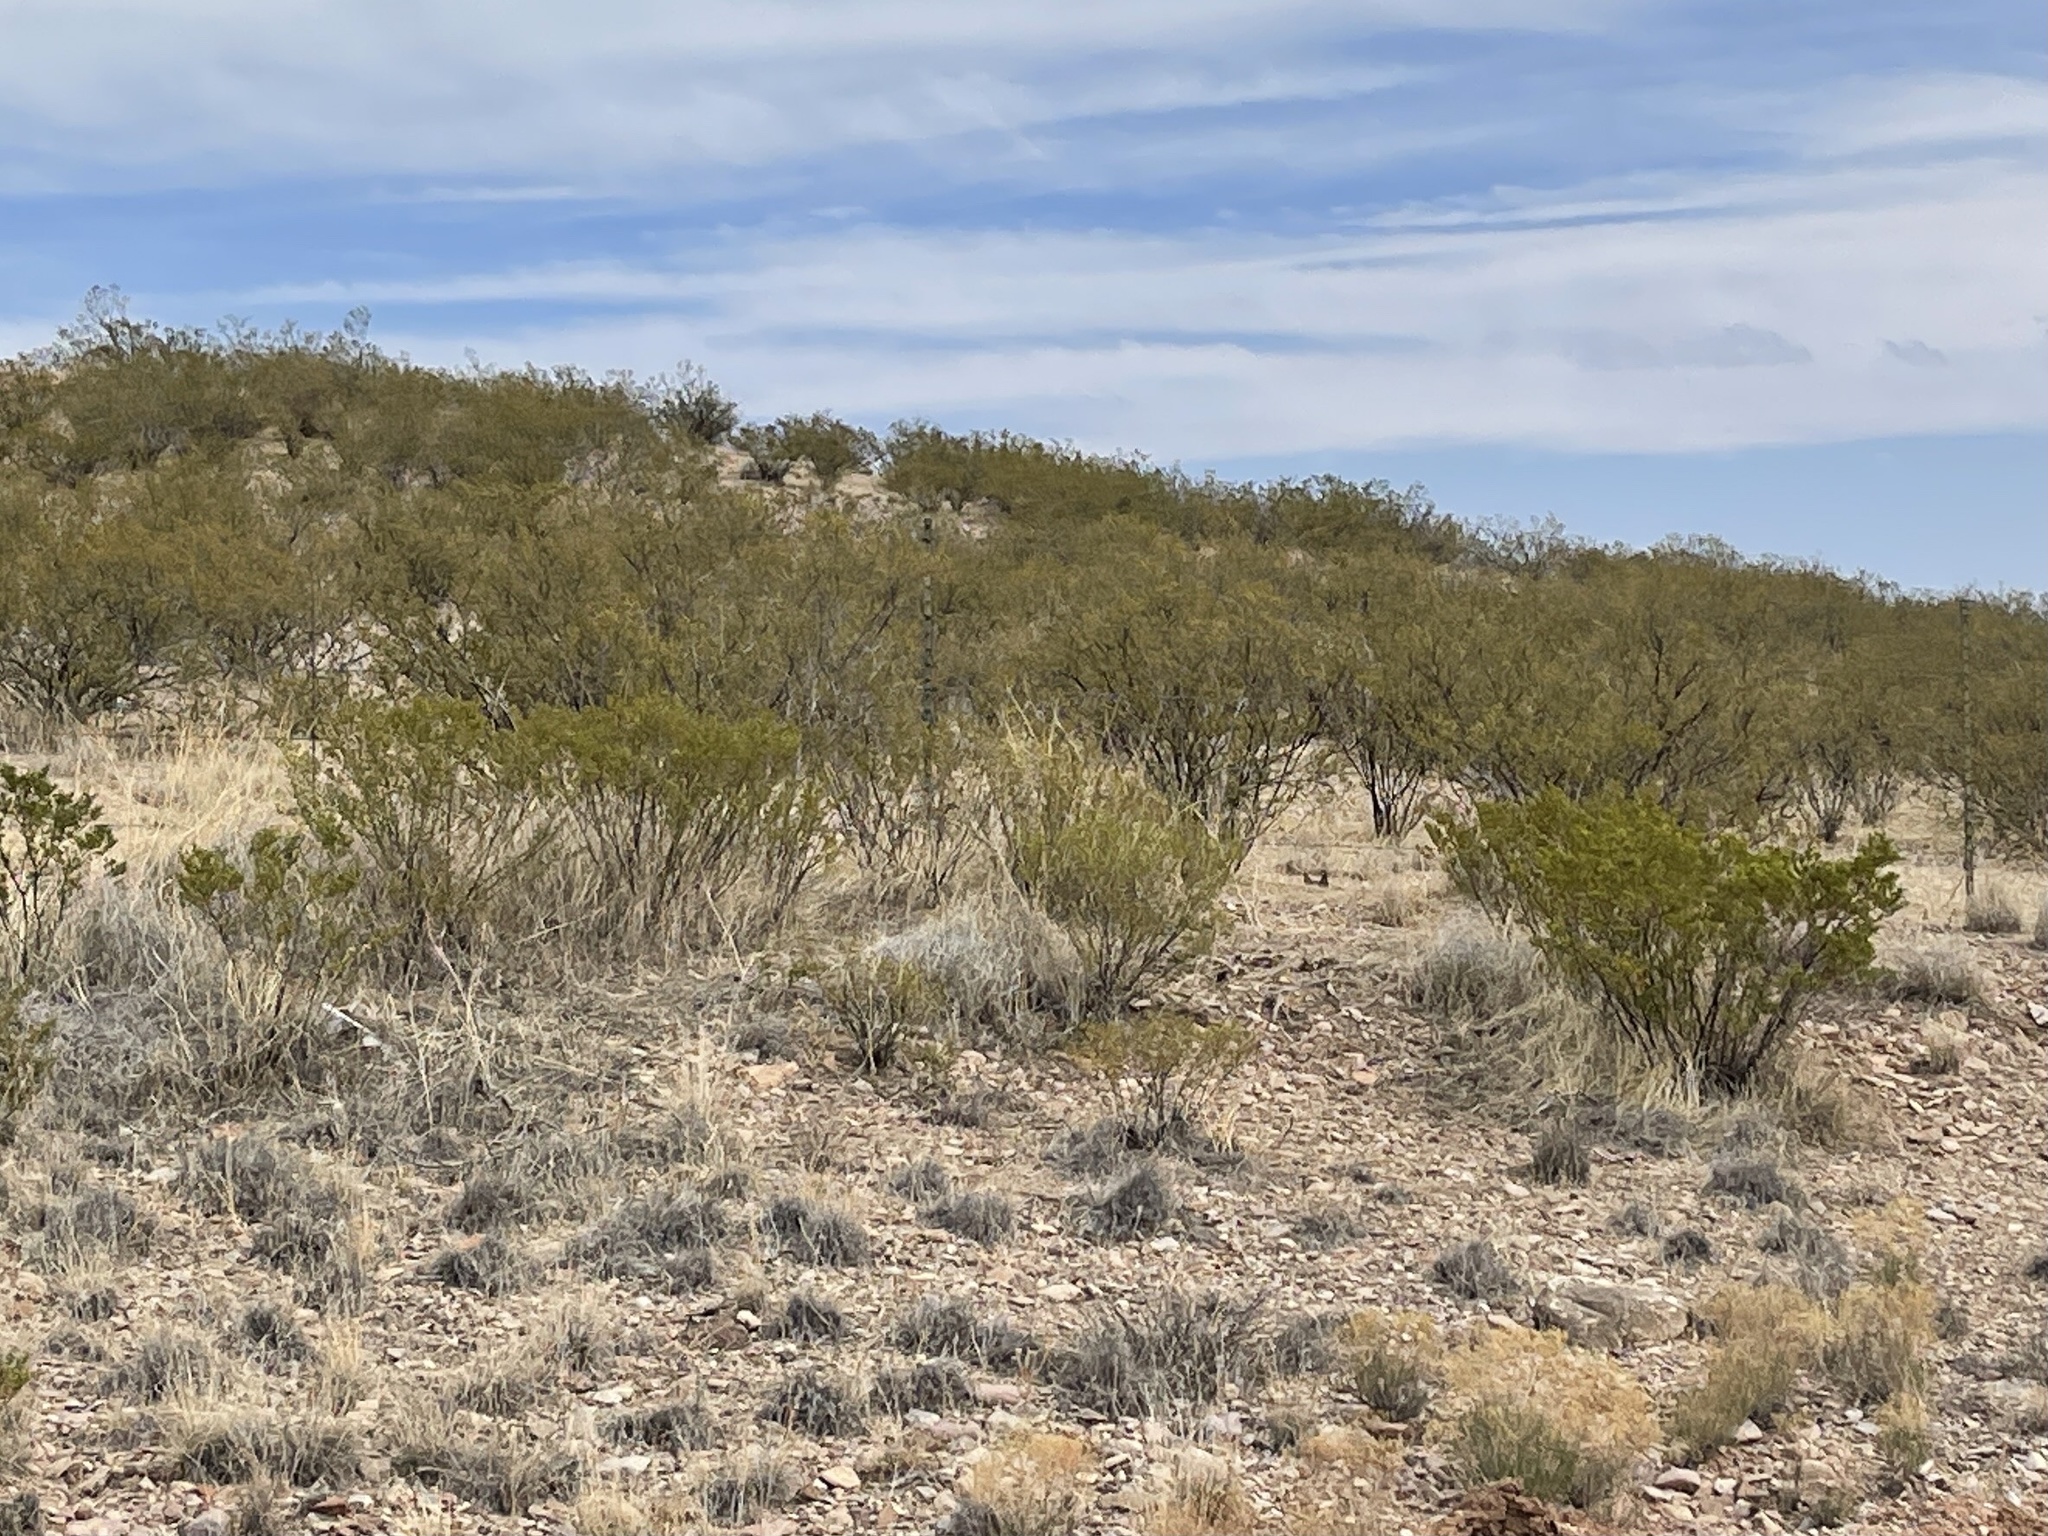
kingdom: Plantae
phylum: Tracheophyta
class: Magnoliopsida
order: Zygophyllales
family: Zygophyllaceae
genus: Larrea
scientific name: Larrea tridentata
